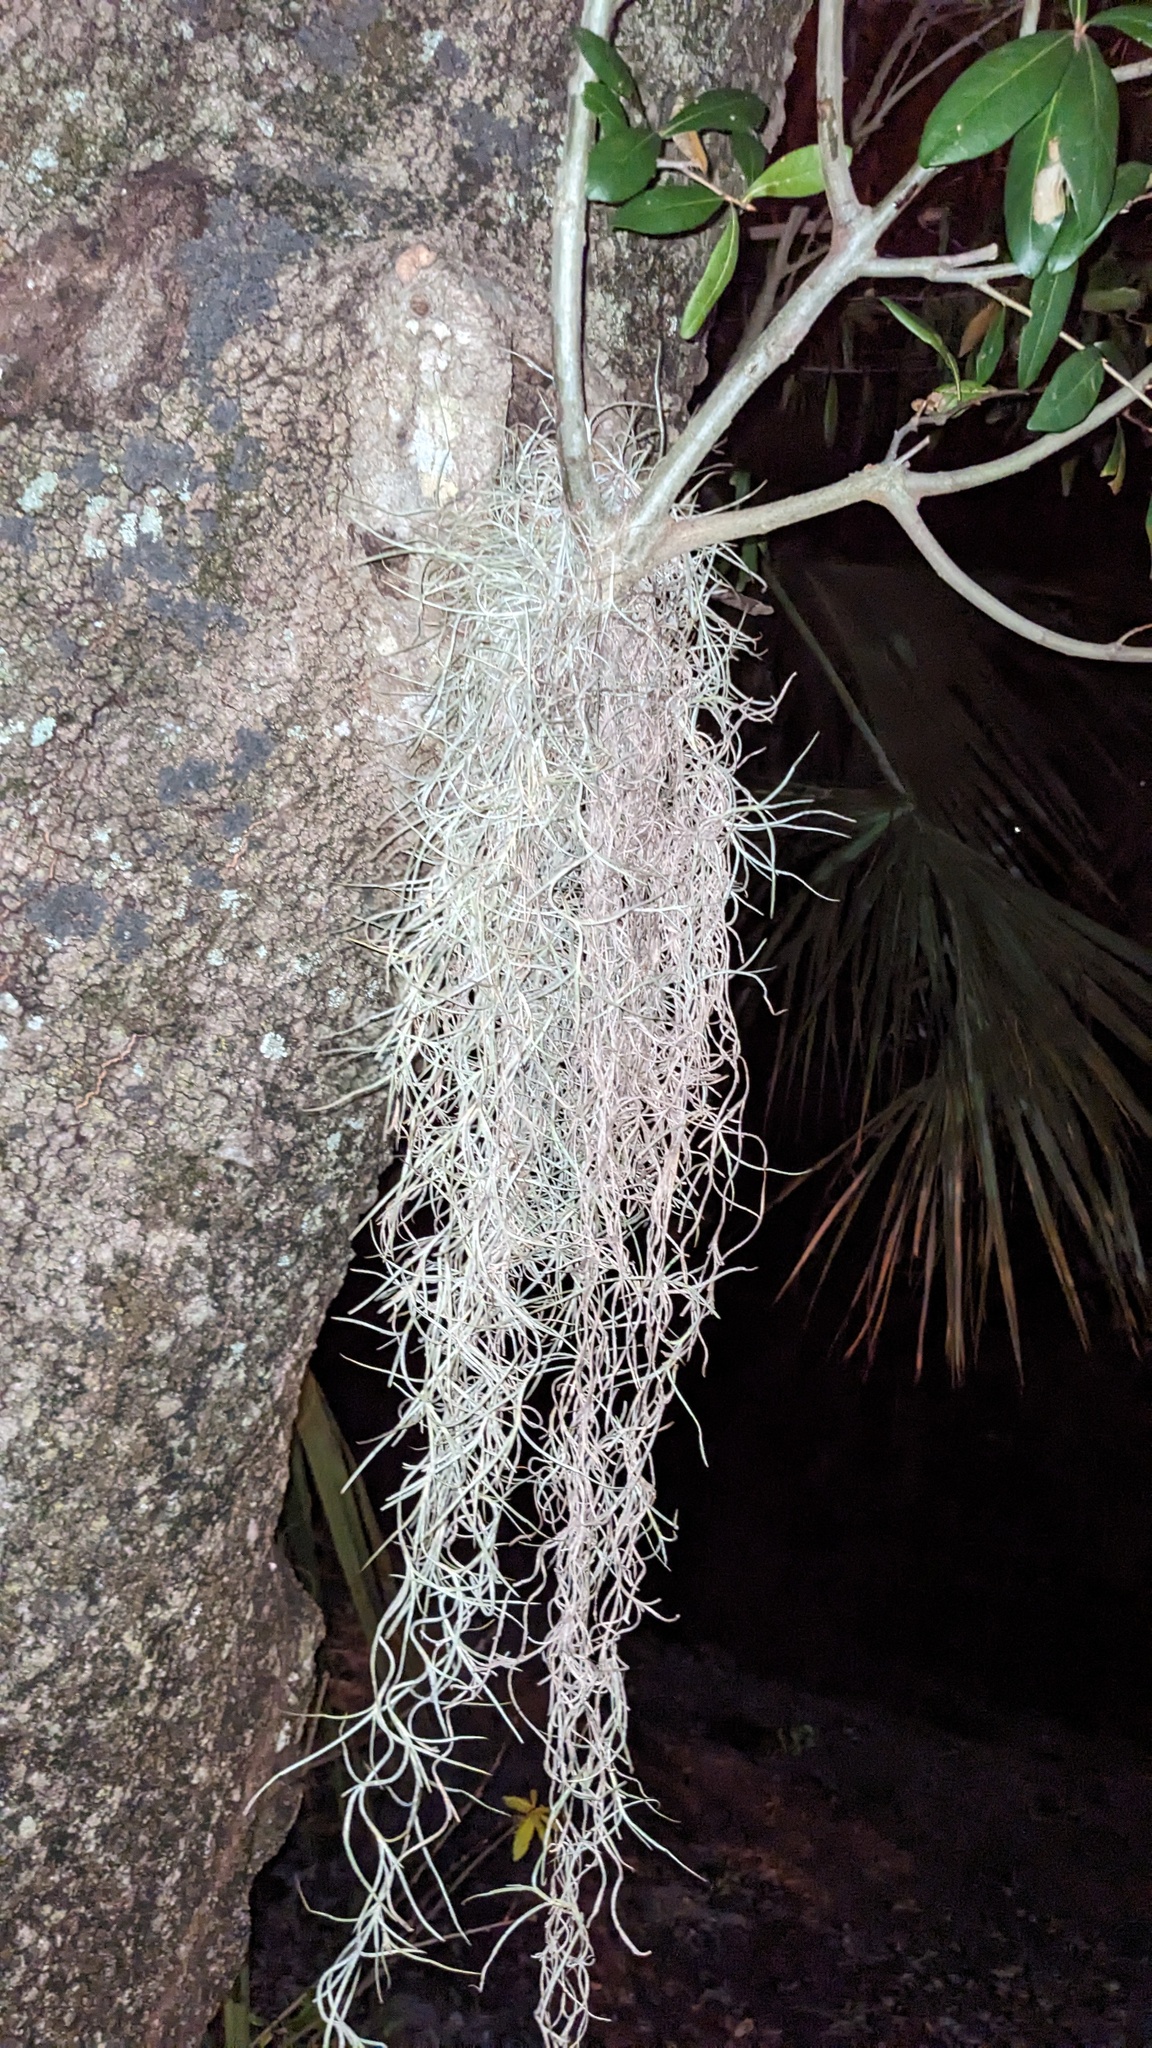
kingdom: Plantae
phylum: Tracheophyta
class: Liliopsida
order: Poales
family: Bromeliaceae
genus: Tillandsia
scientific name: Tillandsia usneoides
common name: Spanish moss
